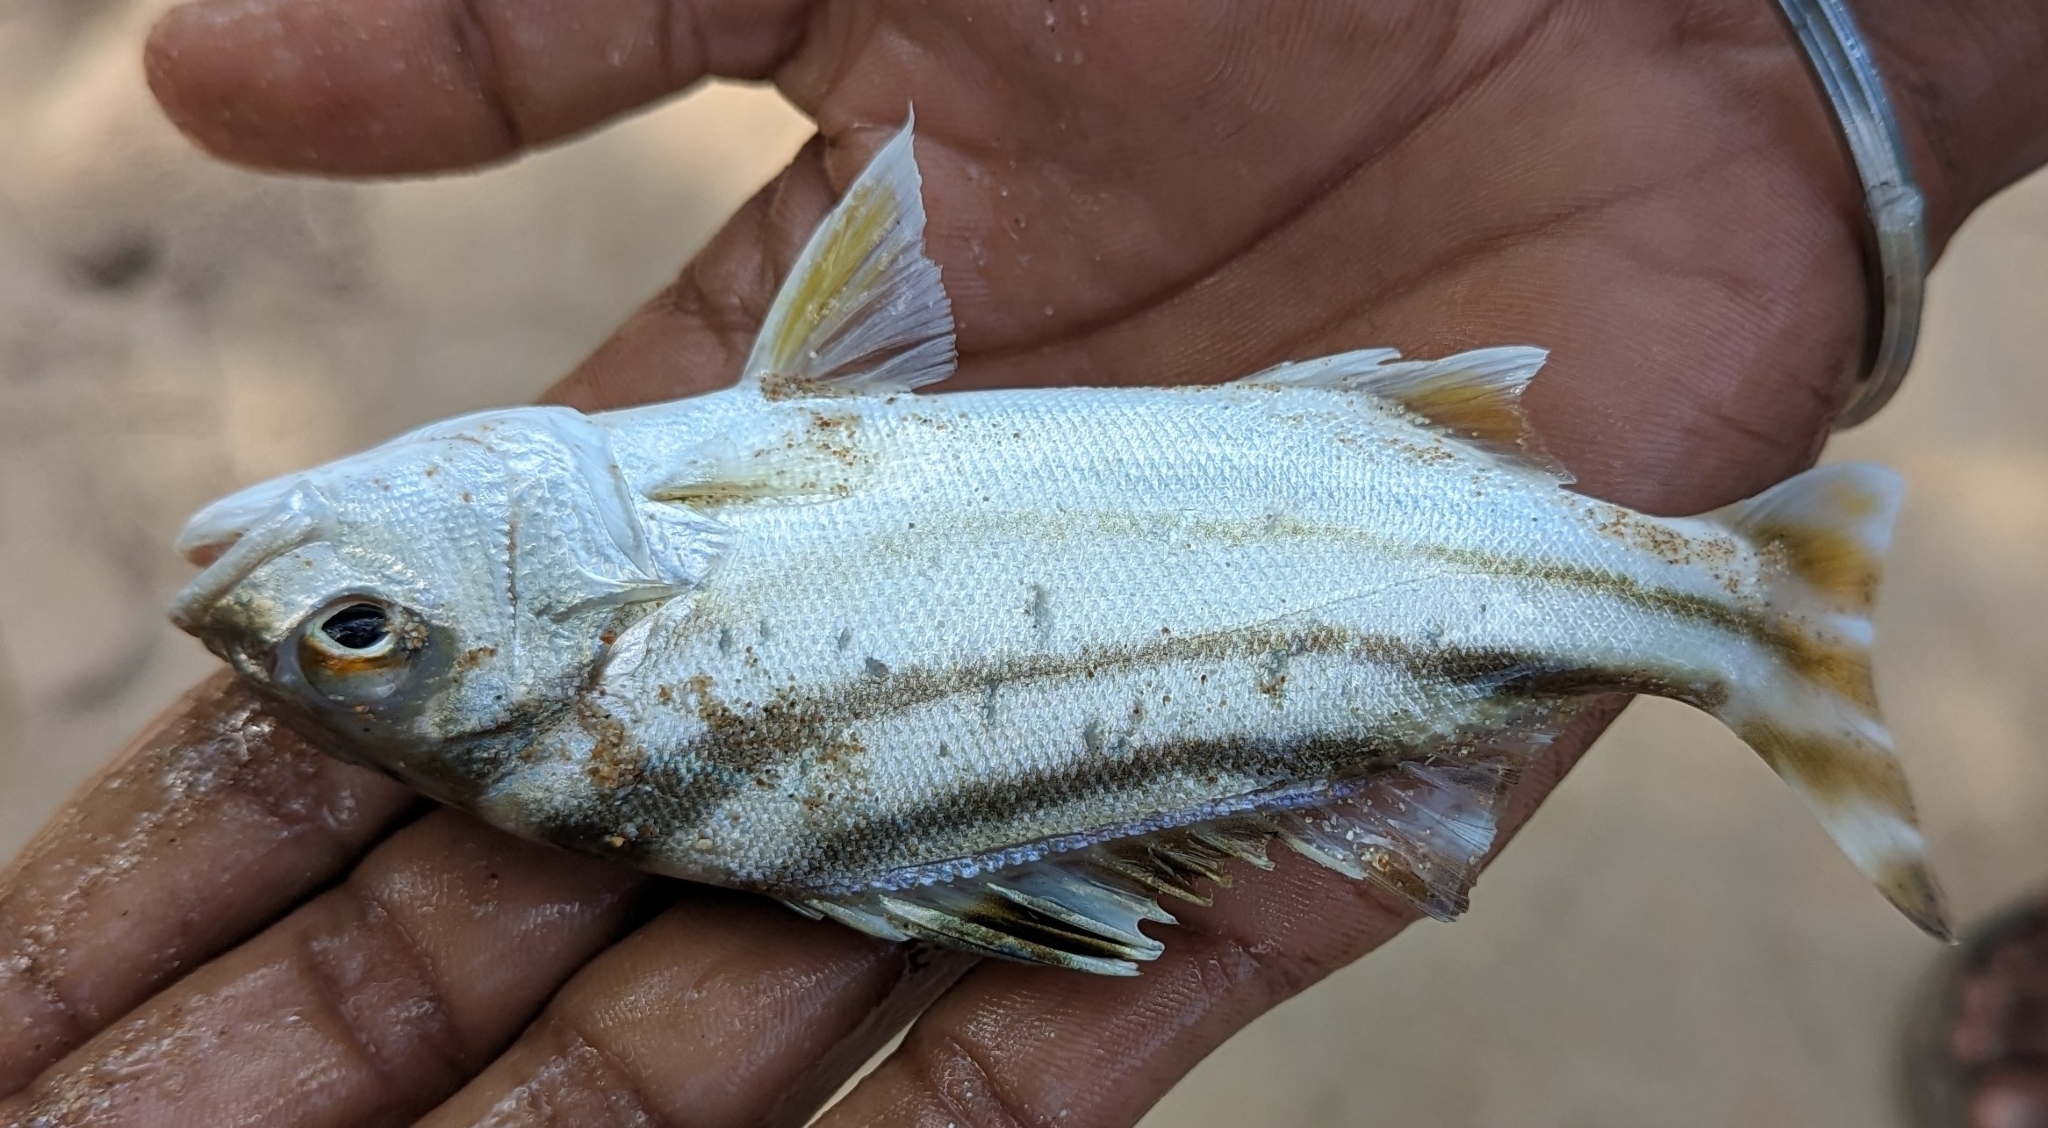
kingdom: Animalia
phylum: Chordata
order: Perciformes
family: Terapontidae
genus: Terapon
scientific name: Terapon jarbua
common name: Jarbua terapon
